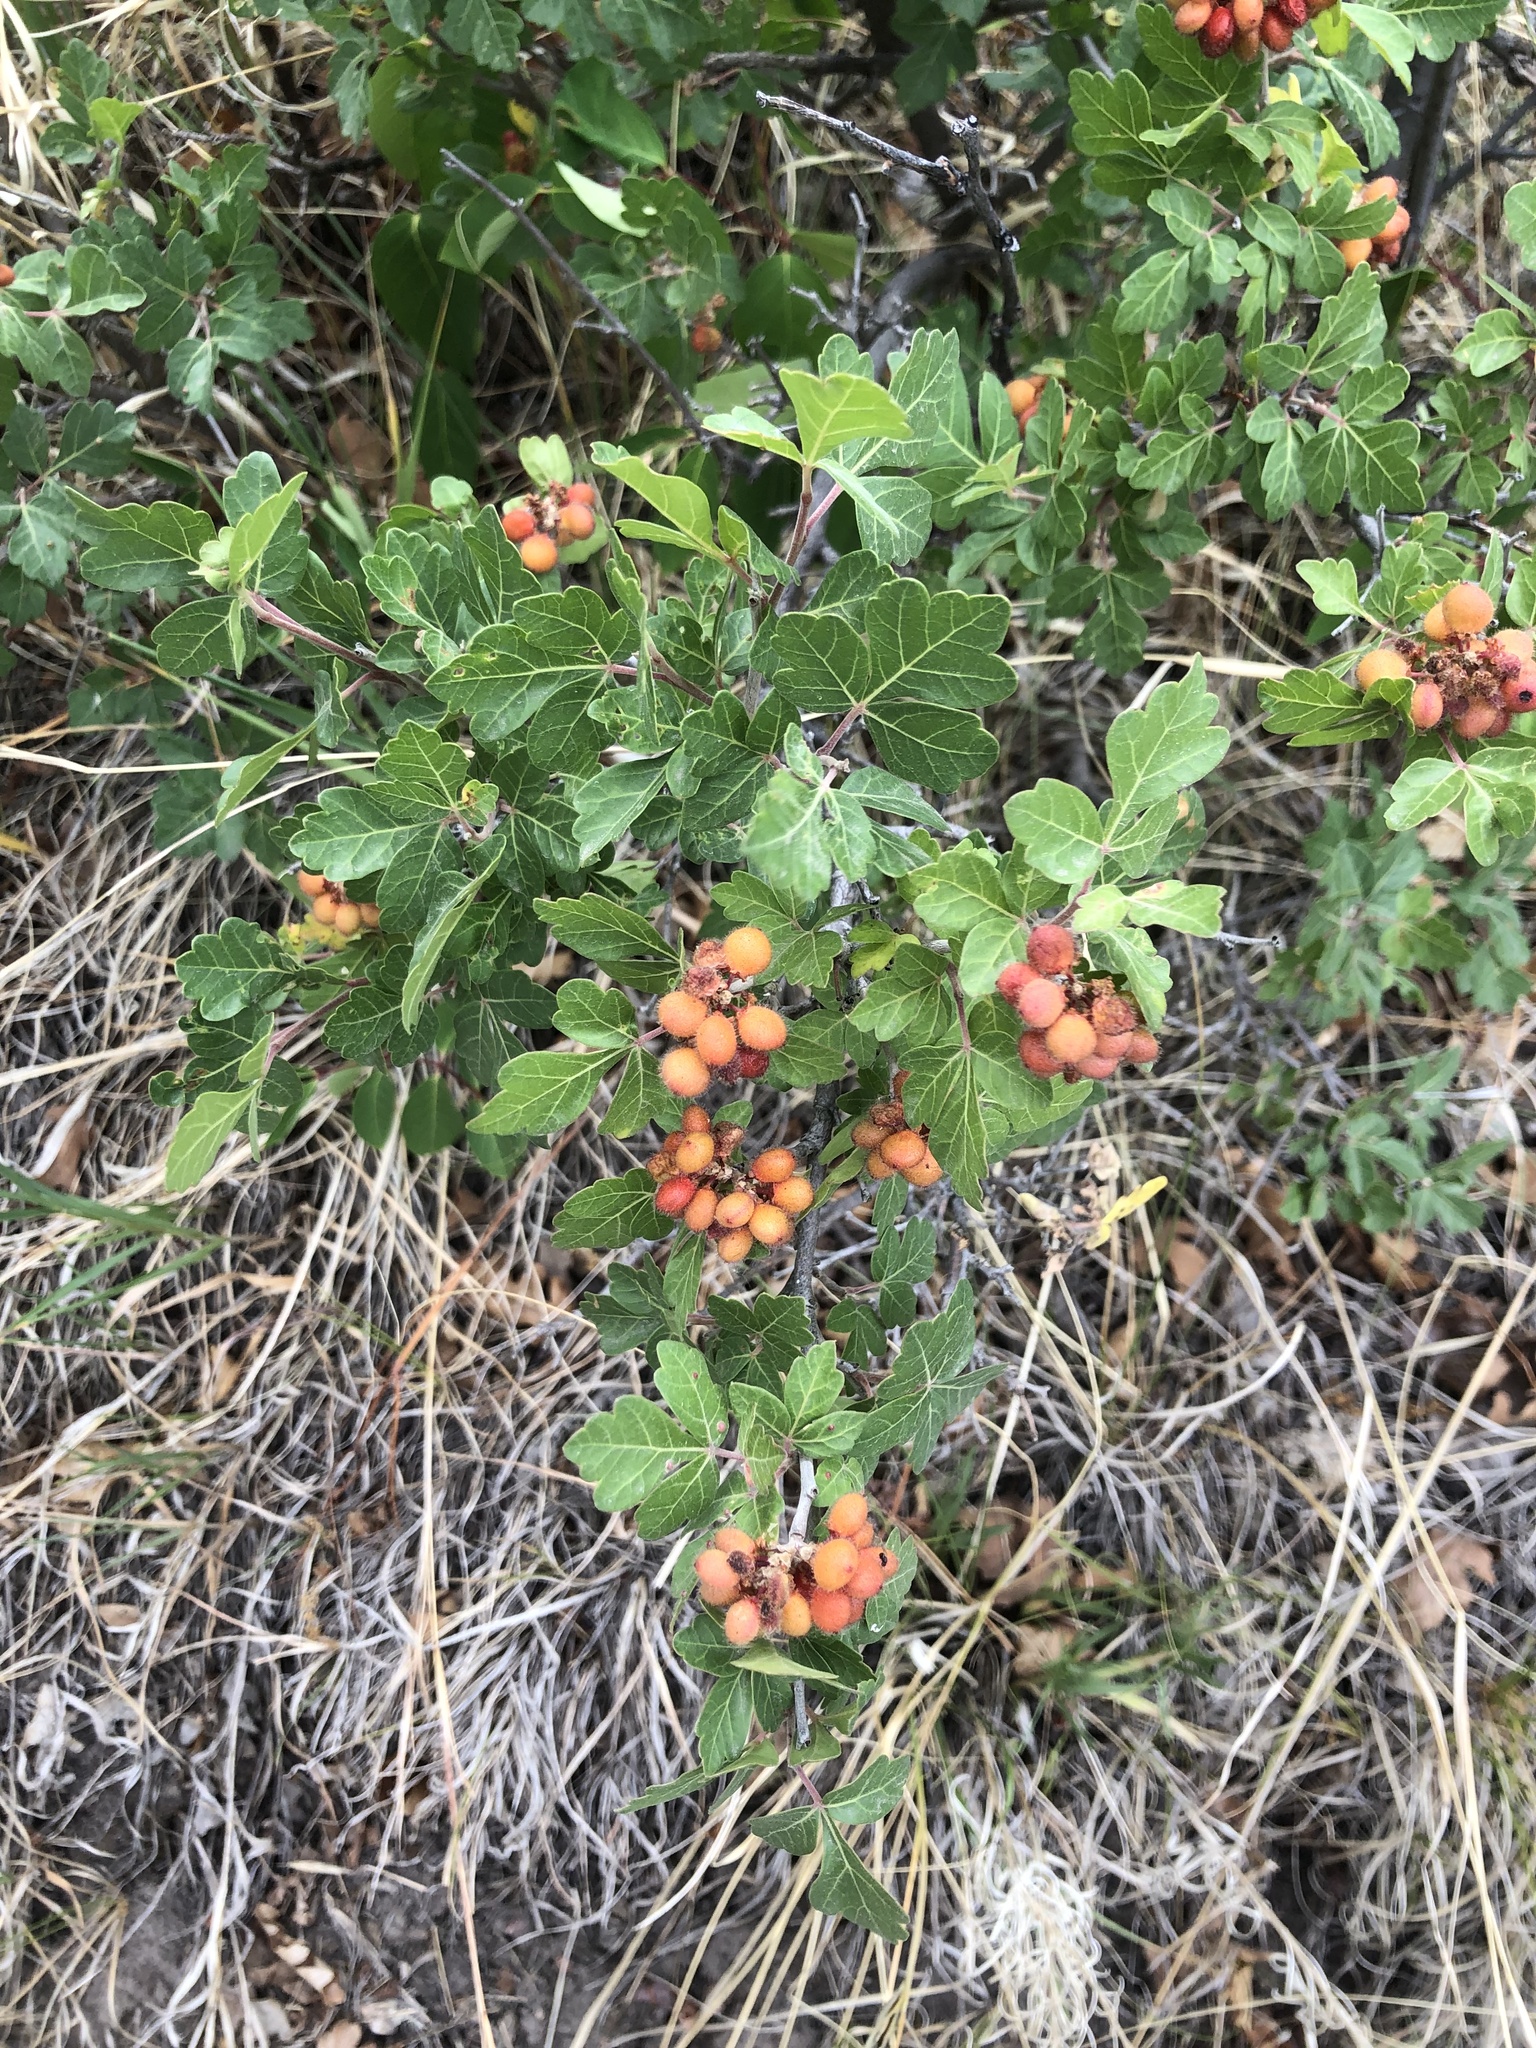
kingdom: Plantae
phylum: Tracheophyta
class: Magnoliopsida
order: Sapindales
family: Anacardiaceae
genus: Rhus
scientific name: Rhus trilobata
